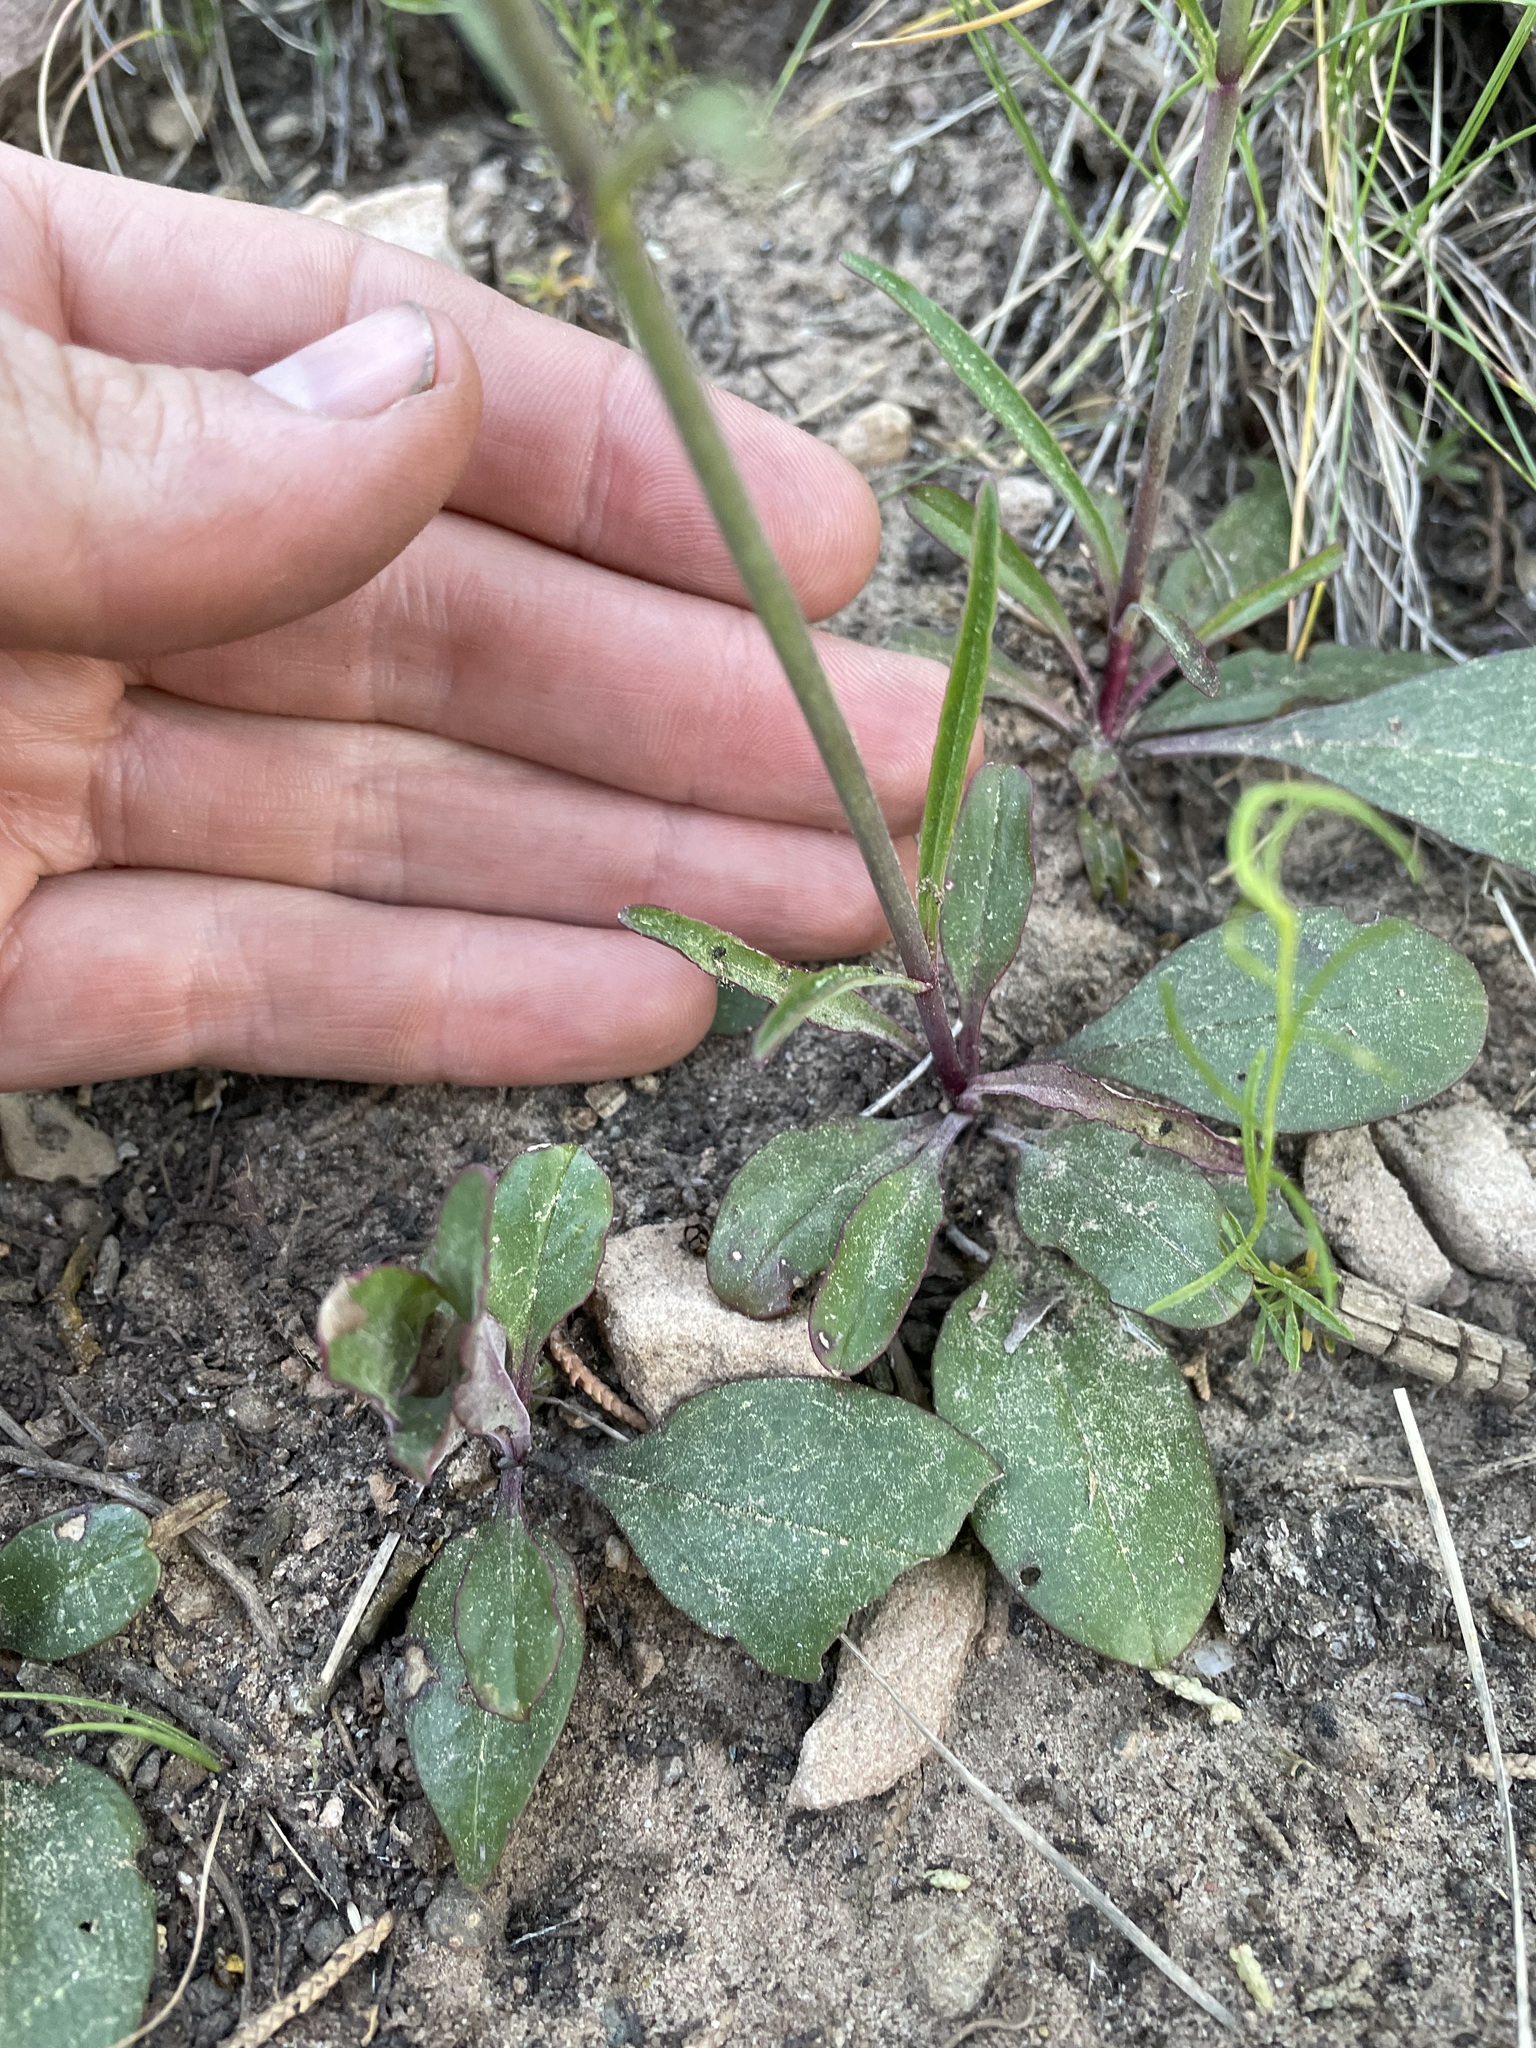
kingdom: Plantae
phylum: Tracheophyta
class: Magnoliopsida
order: Lamiales
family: Plantaginaceae
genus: Penstemon
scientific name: Penstemon barbatus
